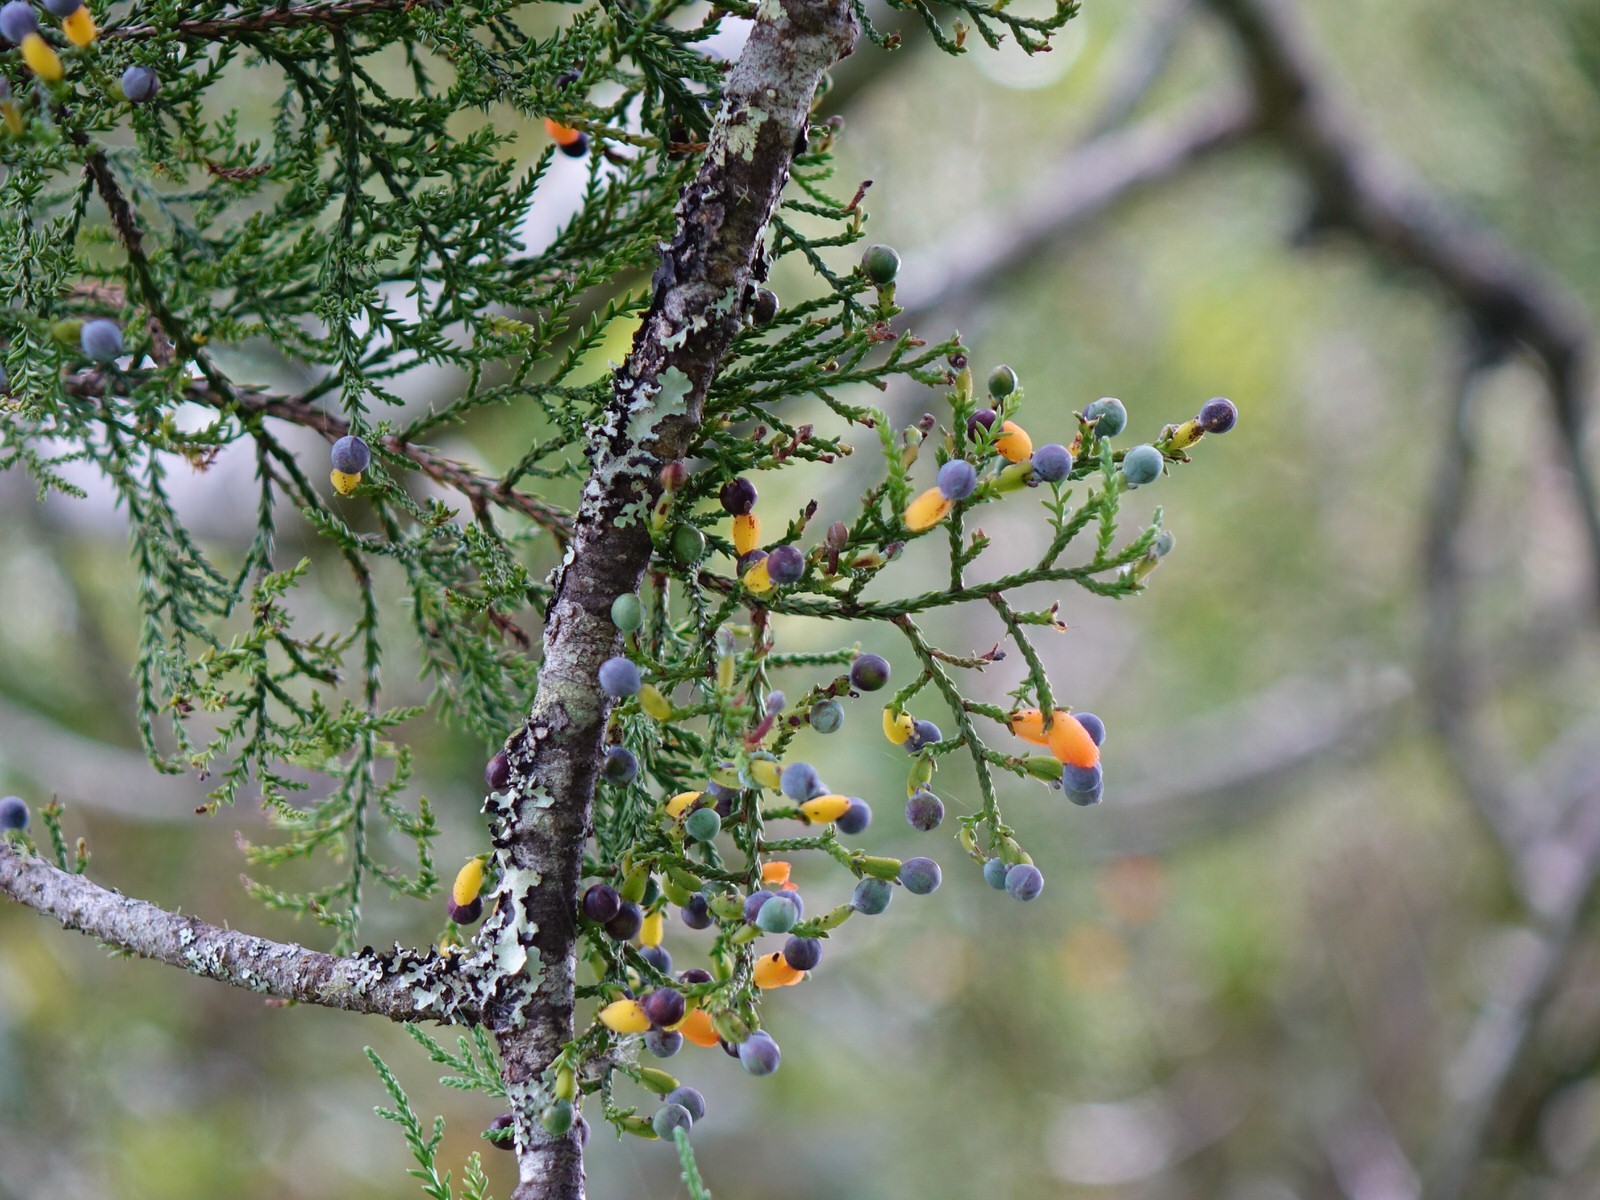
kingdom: Plantae
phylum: Tracheophyta
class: Pinopsida
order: Pinales
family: Podocarpaceae
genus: Dacrycarpus
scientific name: Dacrycarpus dacrydioides
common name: White pine
